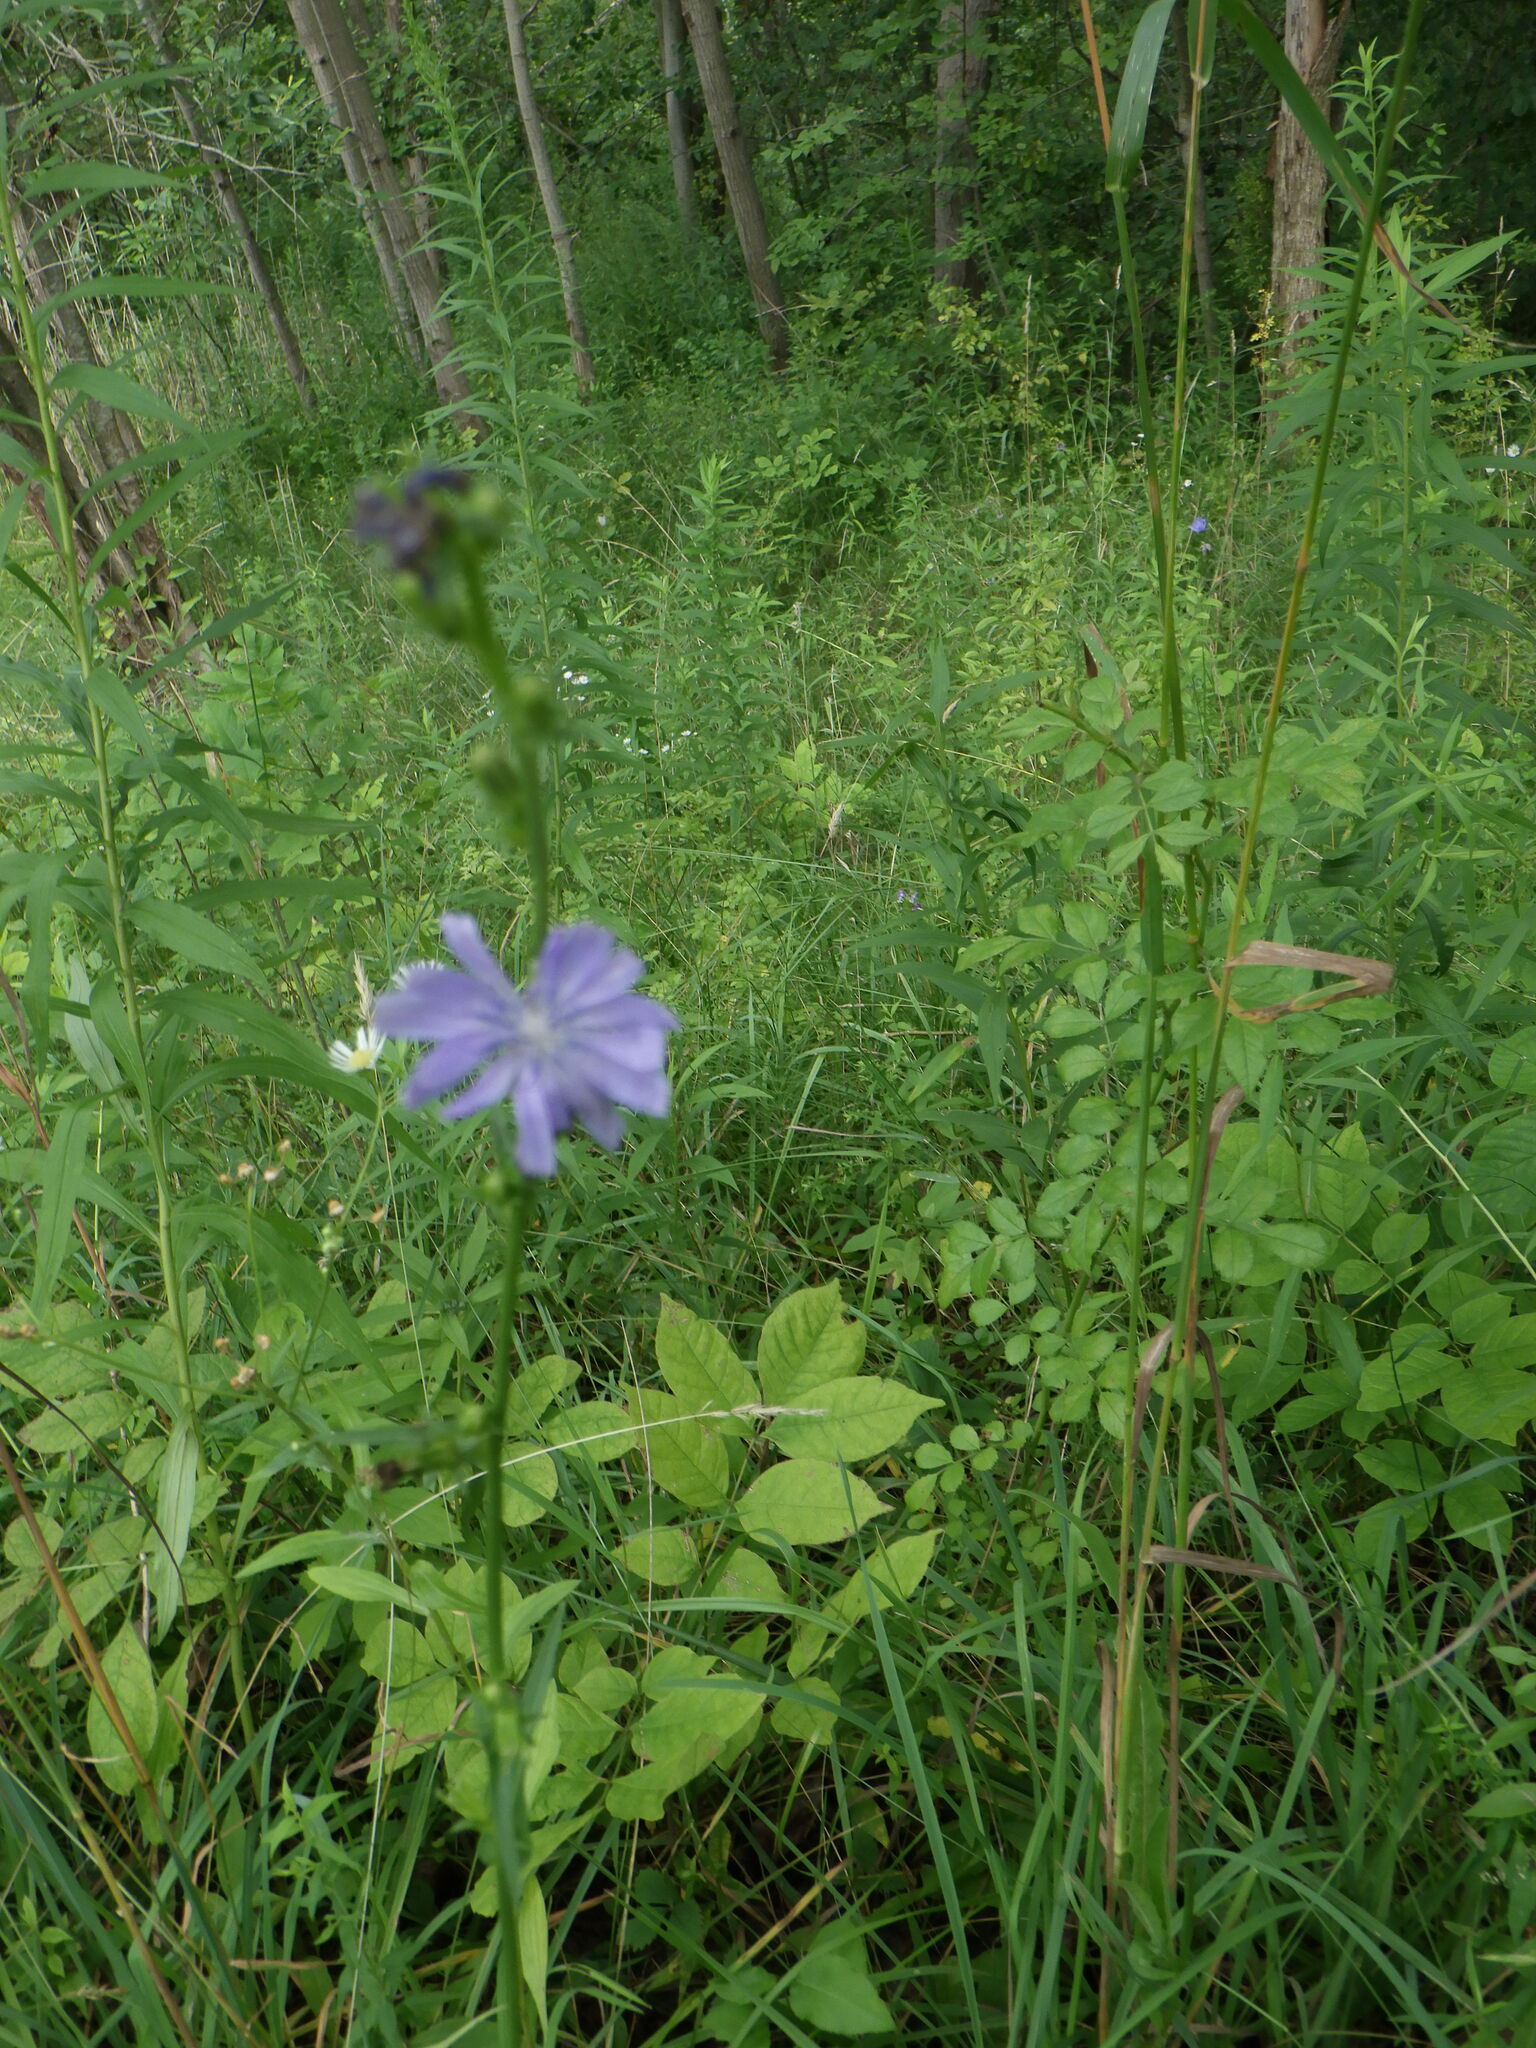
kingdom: Plantae
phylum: Tracheophyta
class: Magnoliopsida
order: Asterales
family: Asteraceae
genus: Cichorium
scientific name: Cichorium intybus
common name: Chicory
